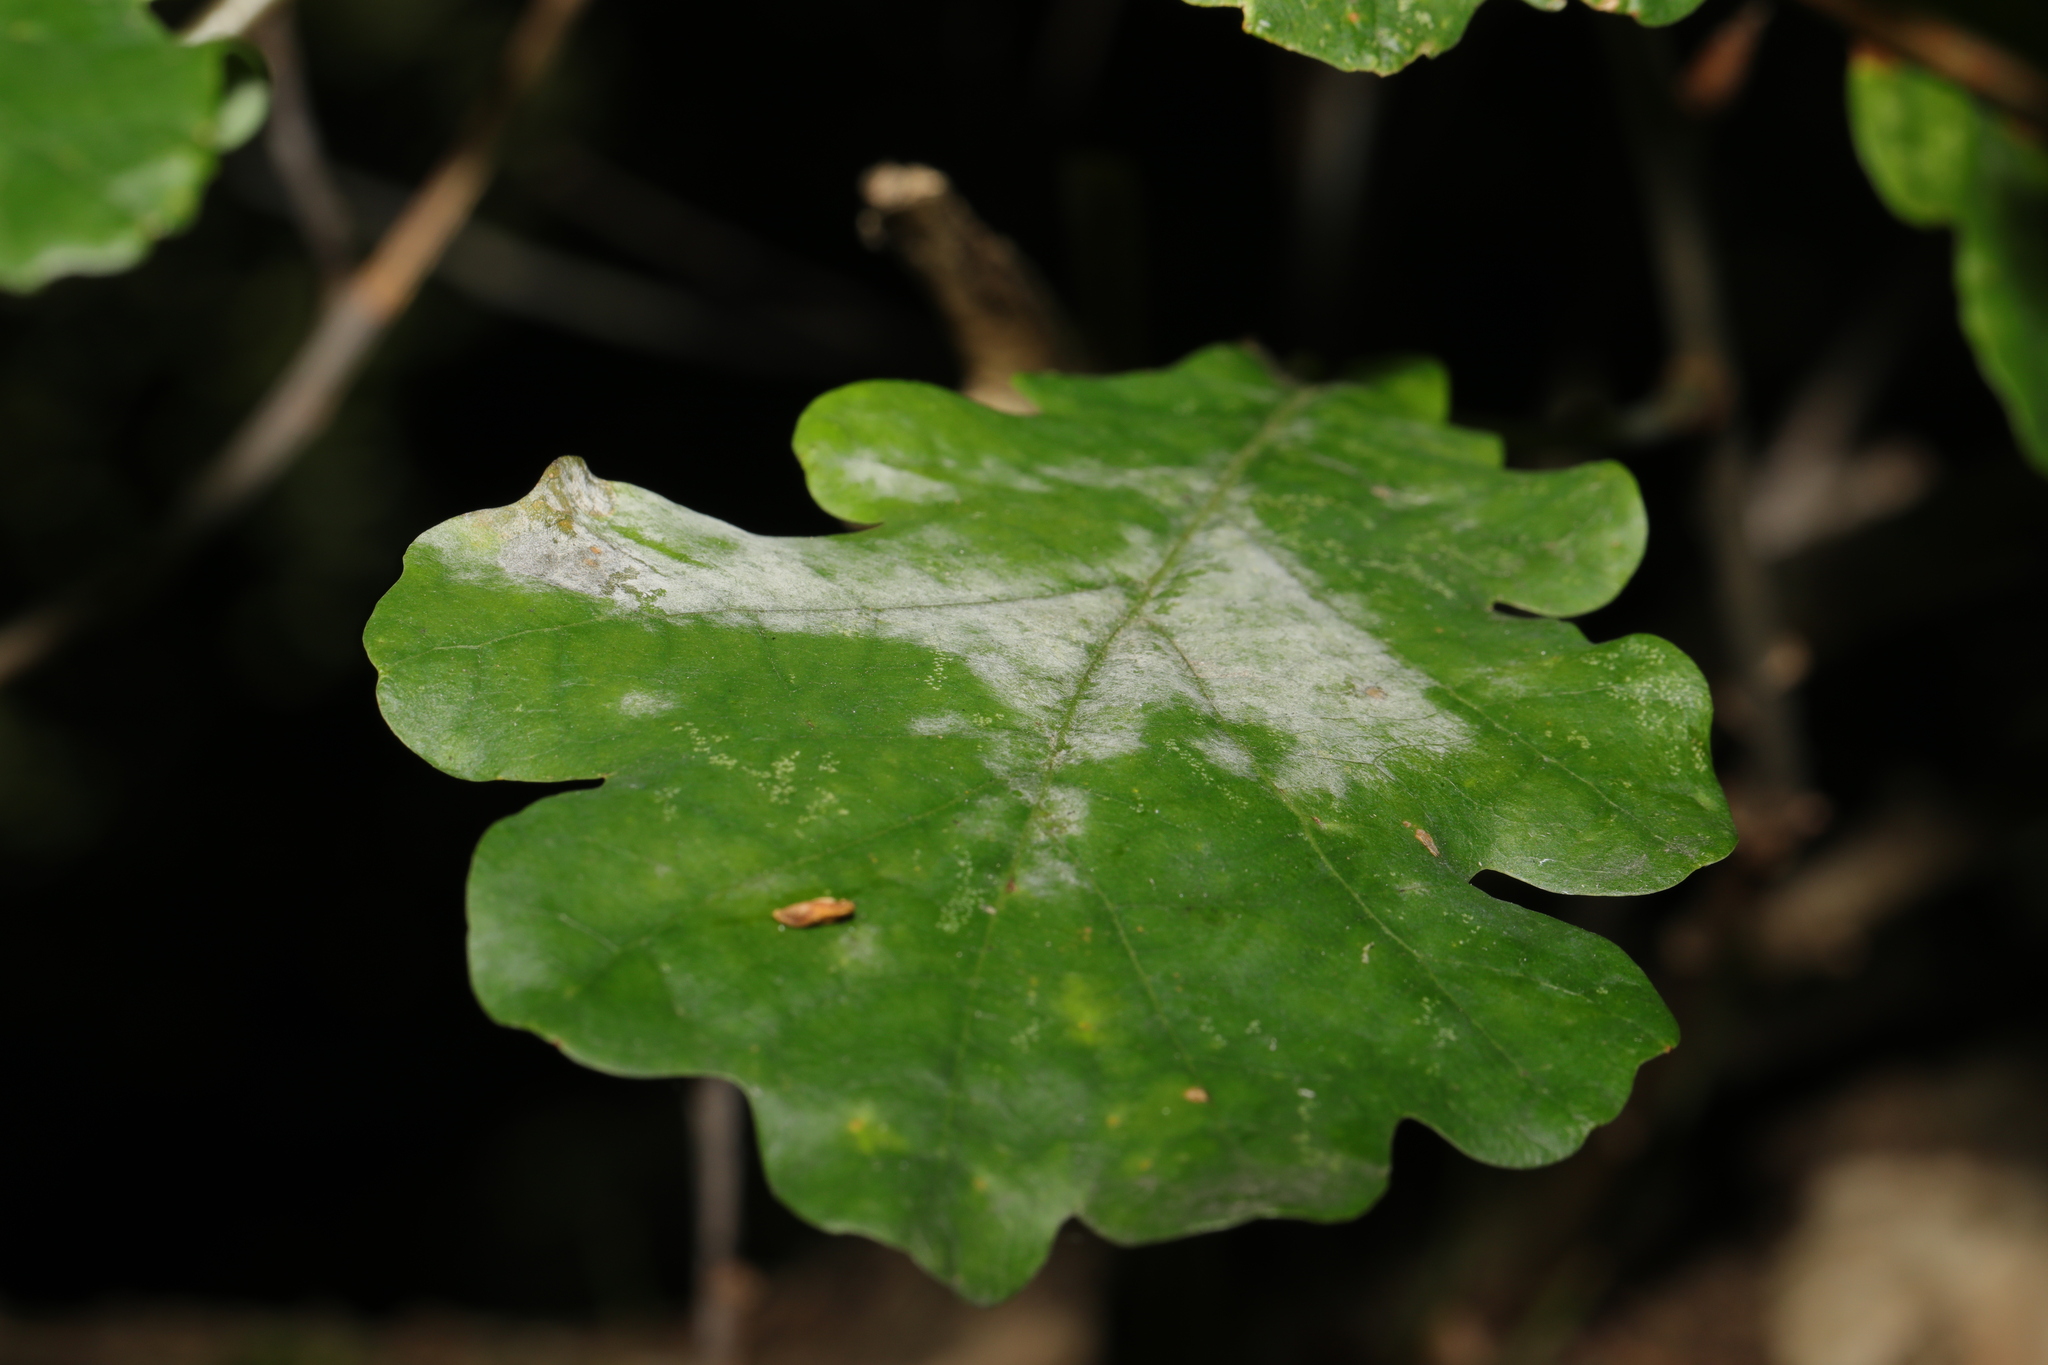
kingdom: Fungi
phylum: Ascomycota
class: Leotiomycetes
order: Helotiales
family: Erysiphaceae
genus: Erysiphe
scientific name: Erysiphe alphitoides
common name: Oak mildew
